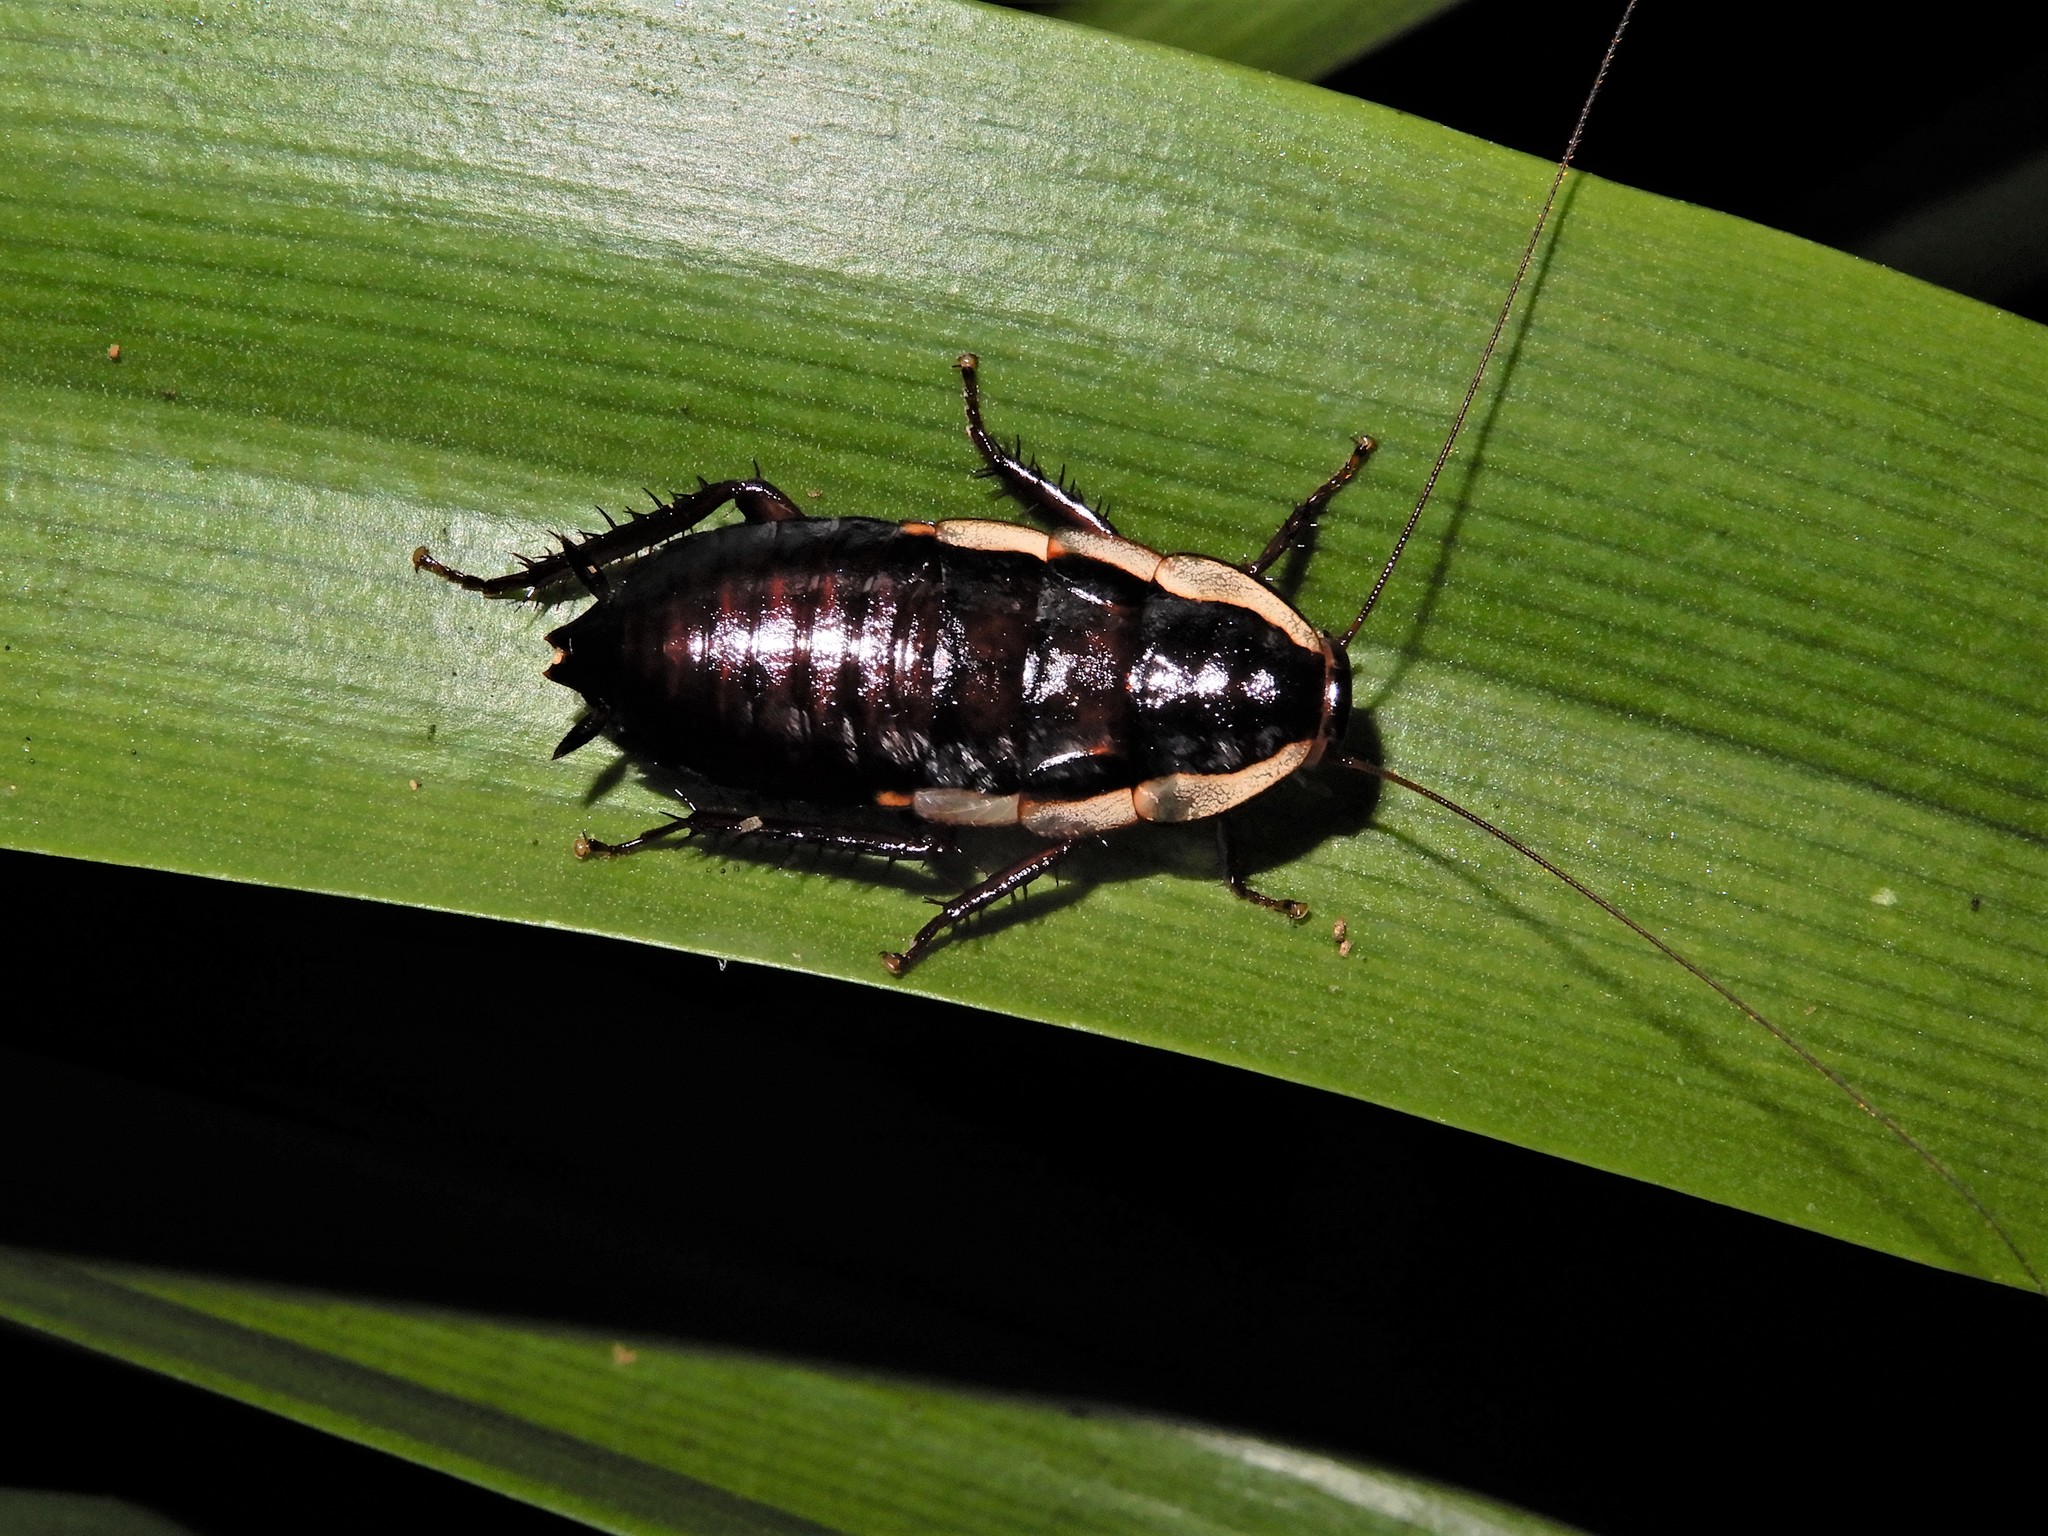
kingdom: Animalia
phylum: Arthropoda
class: Insecta
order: Blattodea
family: Blattidae
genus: Drymaplaneta
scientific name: Drymaplaneta semivitta
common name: Gisborne cockroach
